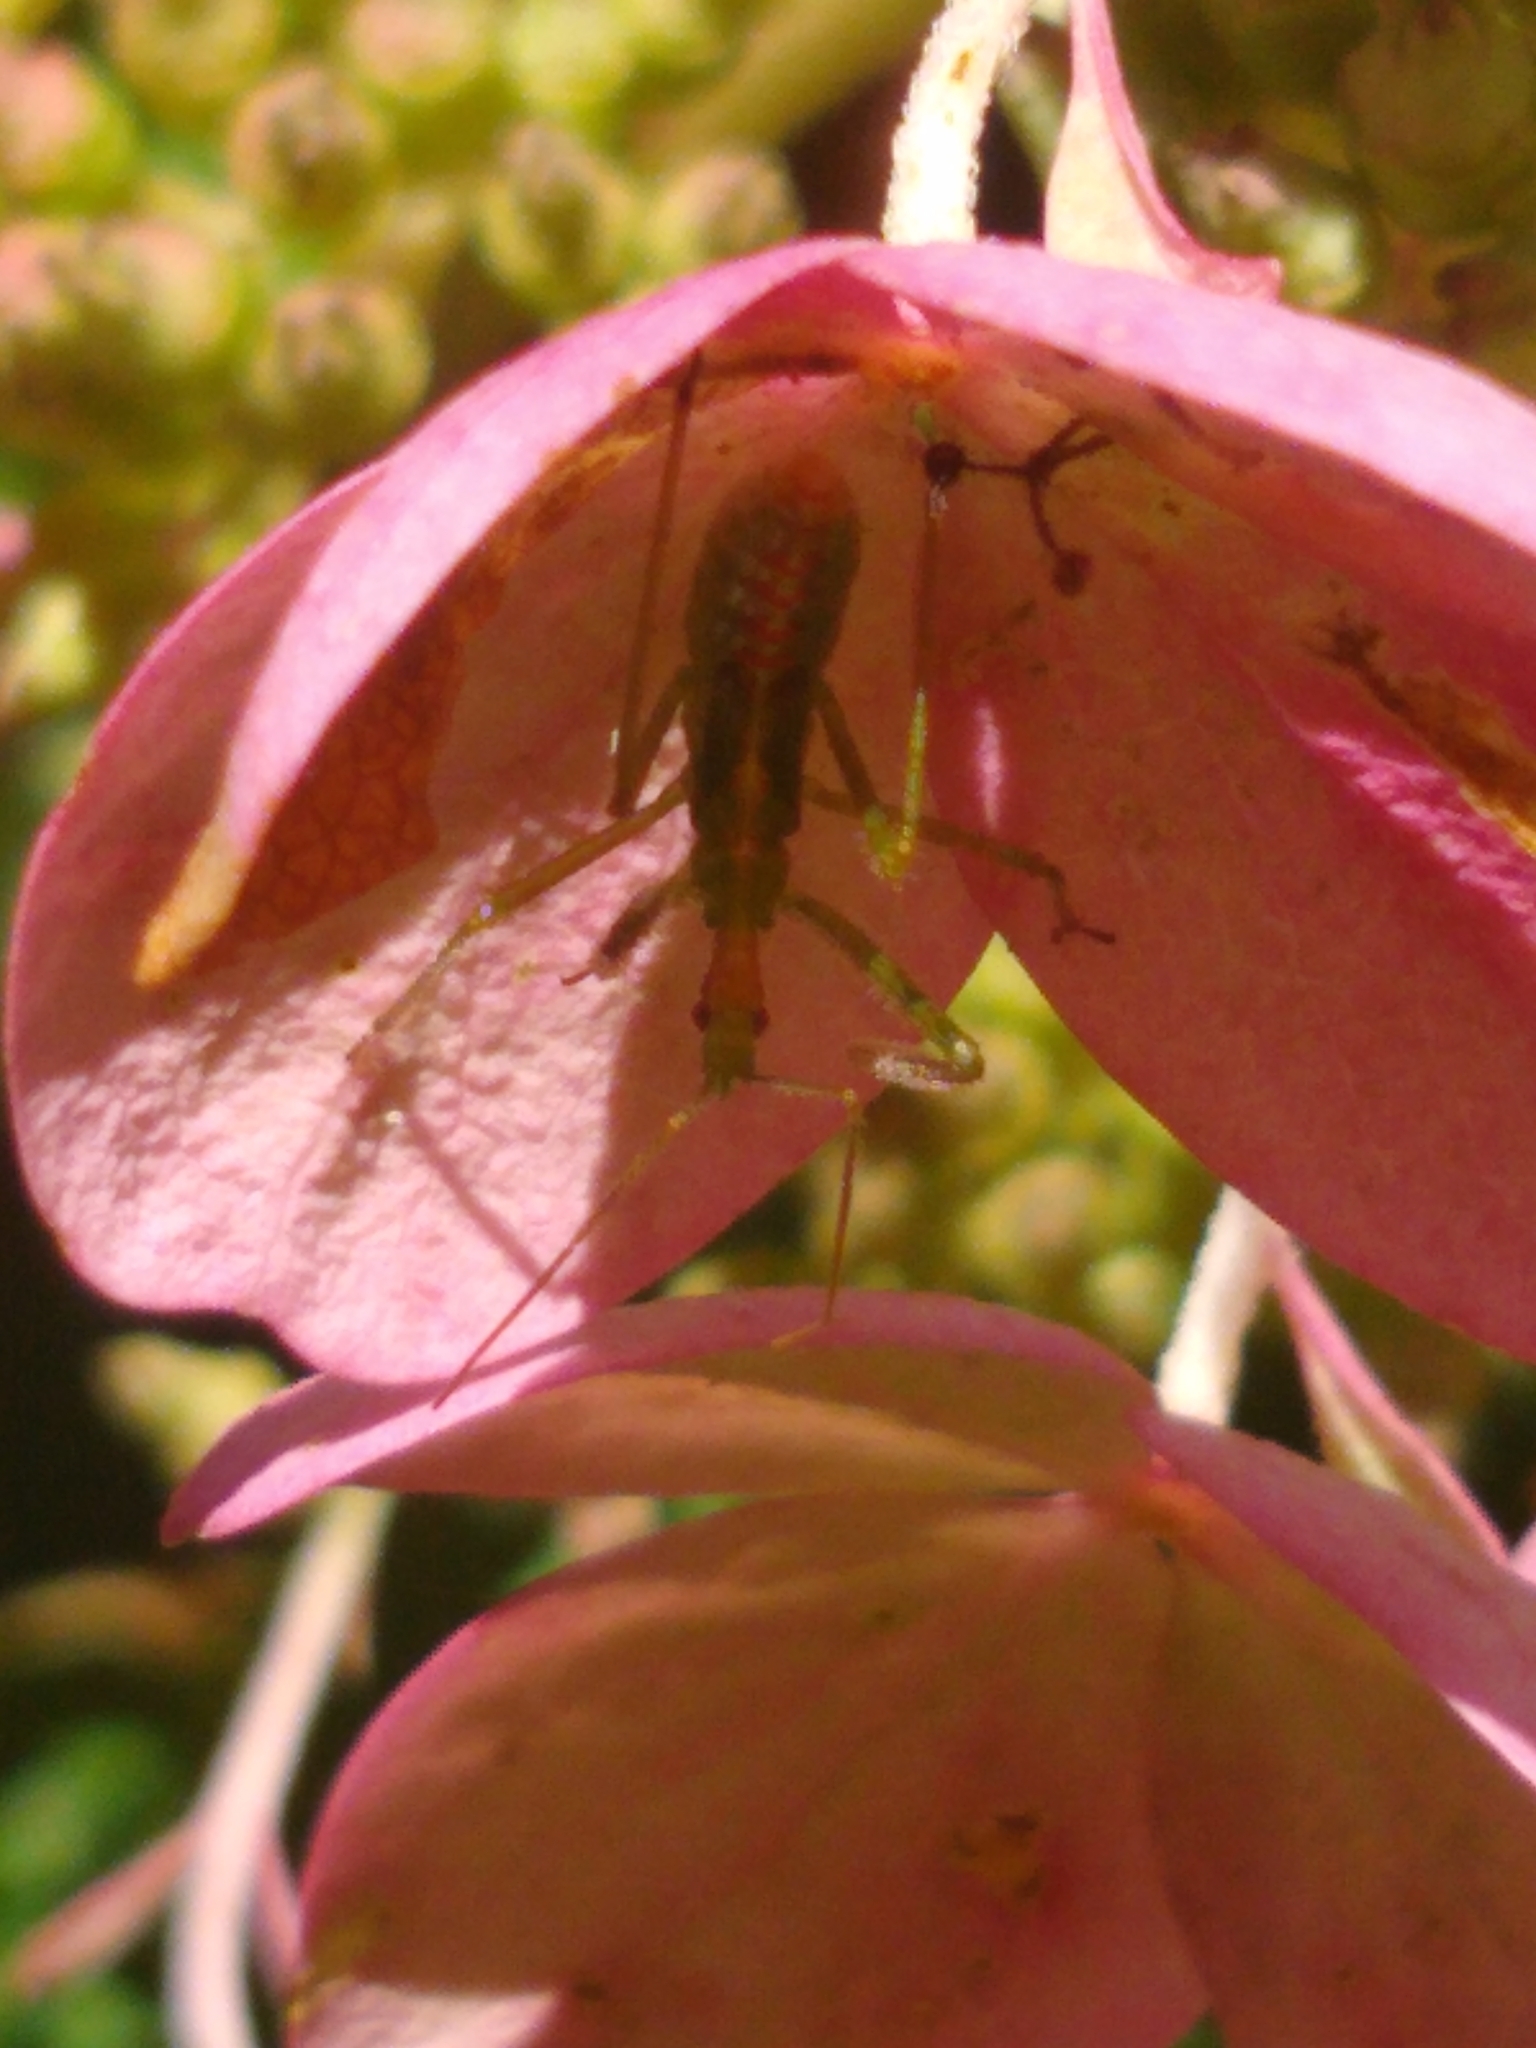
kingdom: Animalia
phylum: Arthropoda
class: Insecta
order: Hemiptera
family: Reduviidae
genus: Zelus
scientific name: Zelus luridus
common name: Pale green assassin bug
